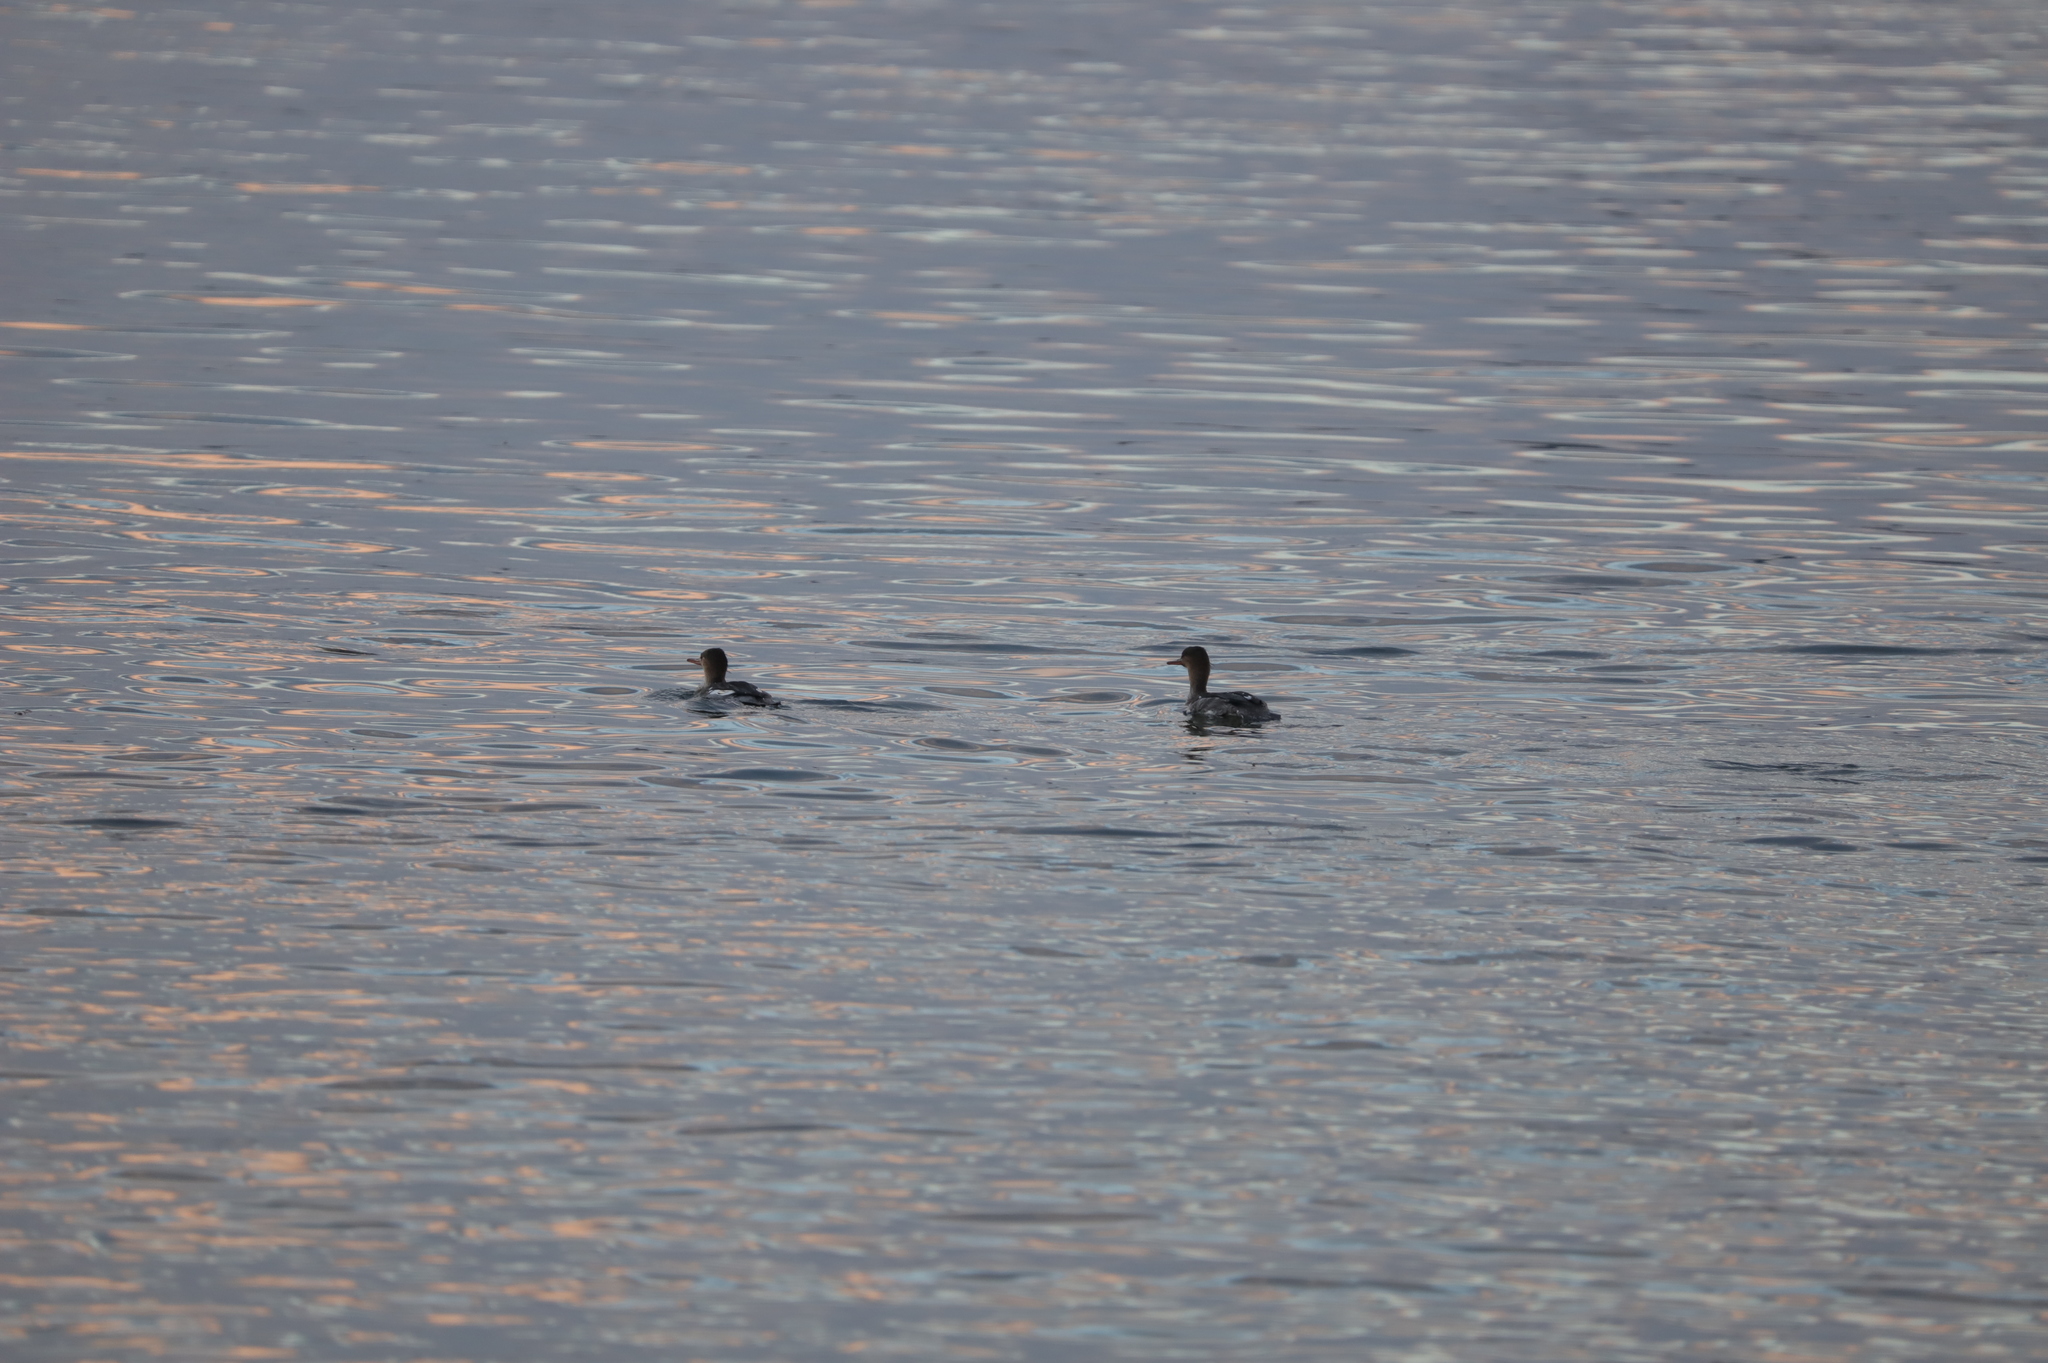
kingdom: Animalia
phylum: Chordata
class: Aves
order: Anseriformes
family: Anatidae
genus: Mergus
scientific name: Mergus serrator
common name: Red-breasted merganser
